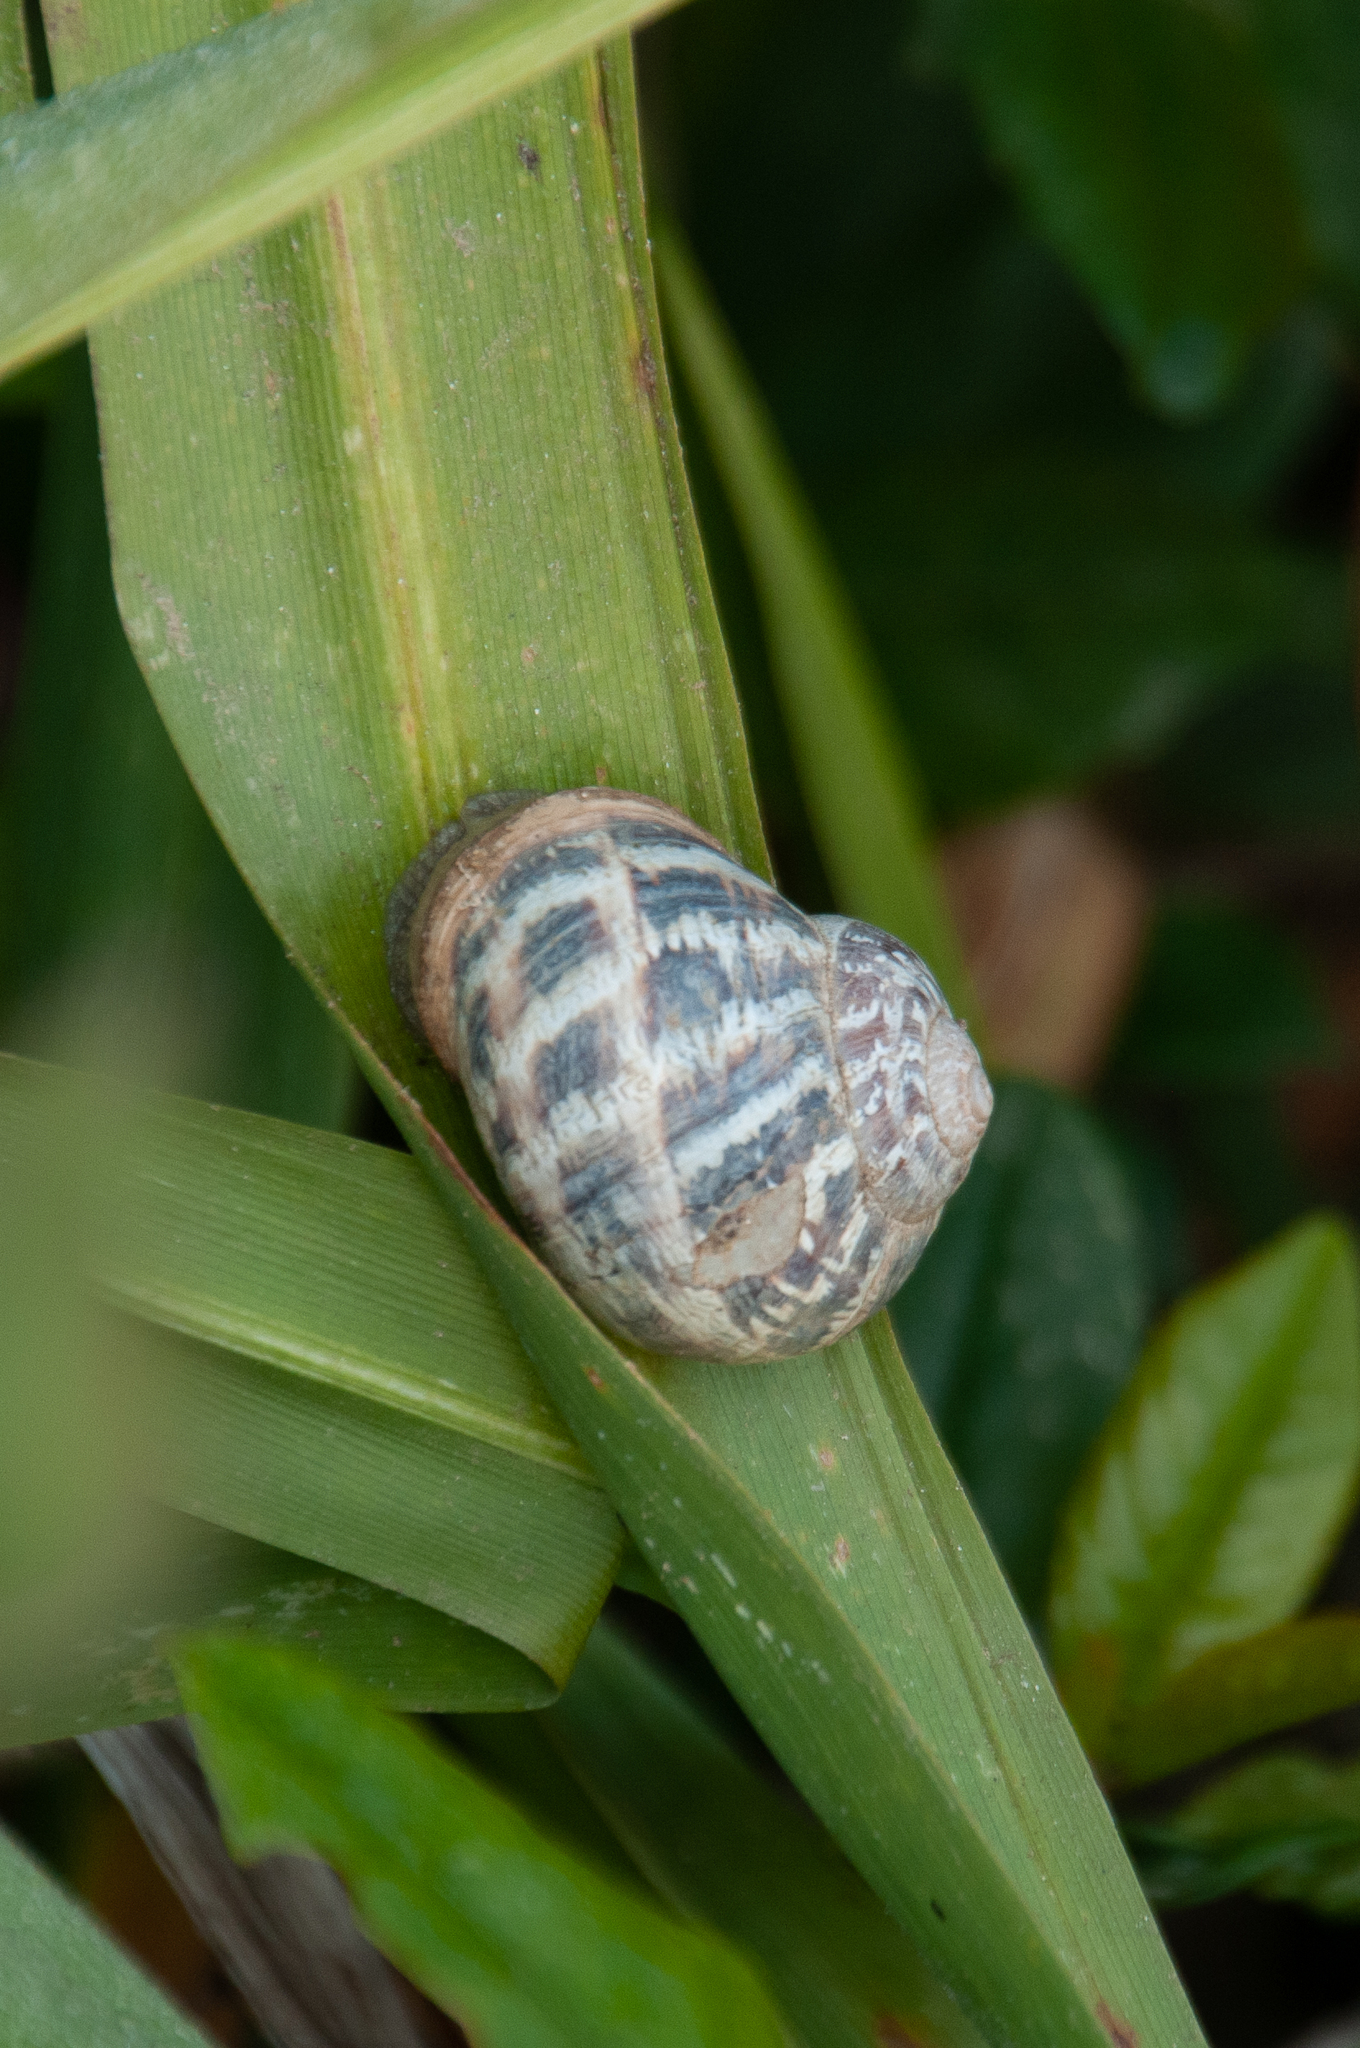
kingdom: Animalia
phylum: Mollusca
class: Gastropoda
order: Stylommatophora
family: Helicidae
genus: Cornu
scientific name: Cornu aspersum
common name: Brown garden snail
